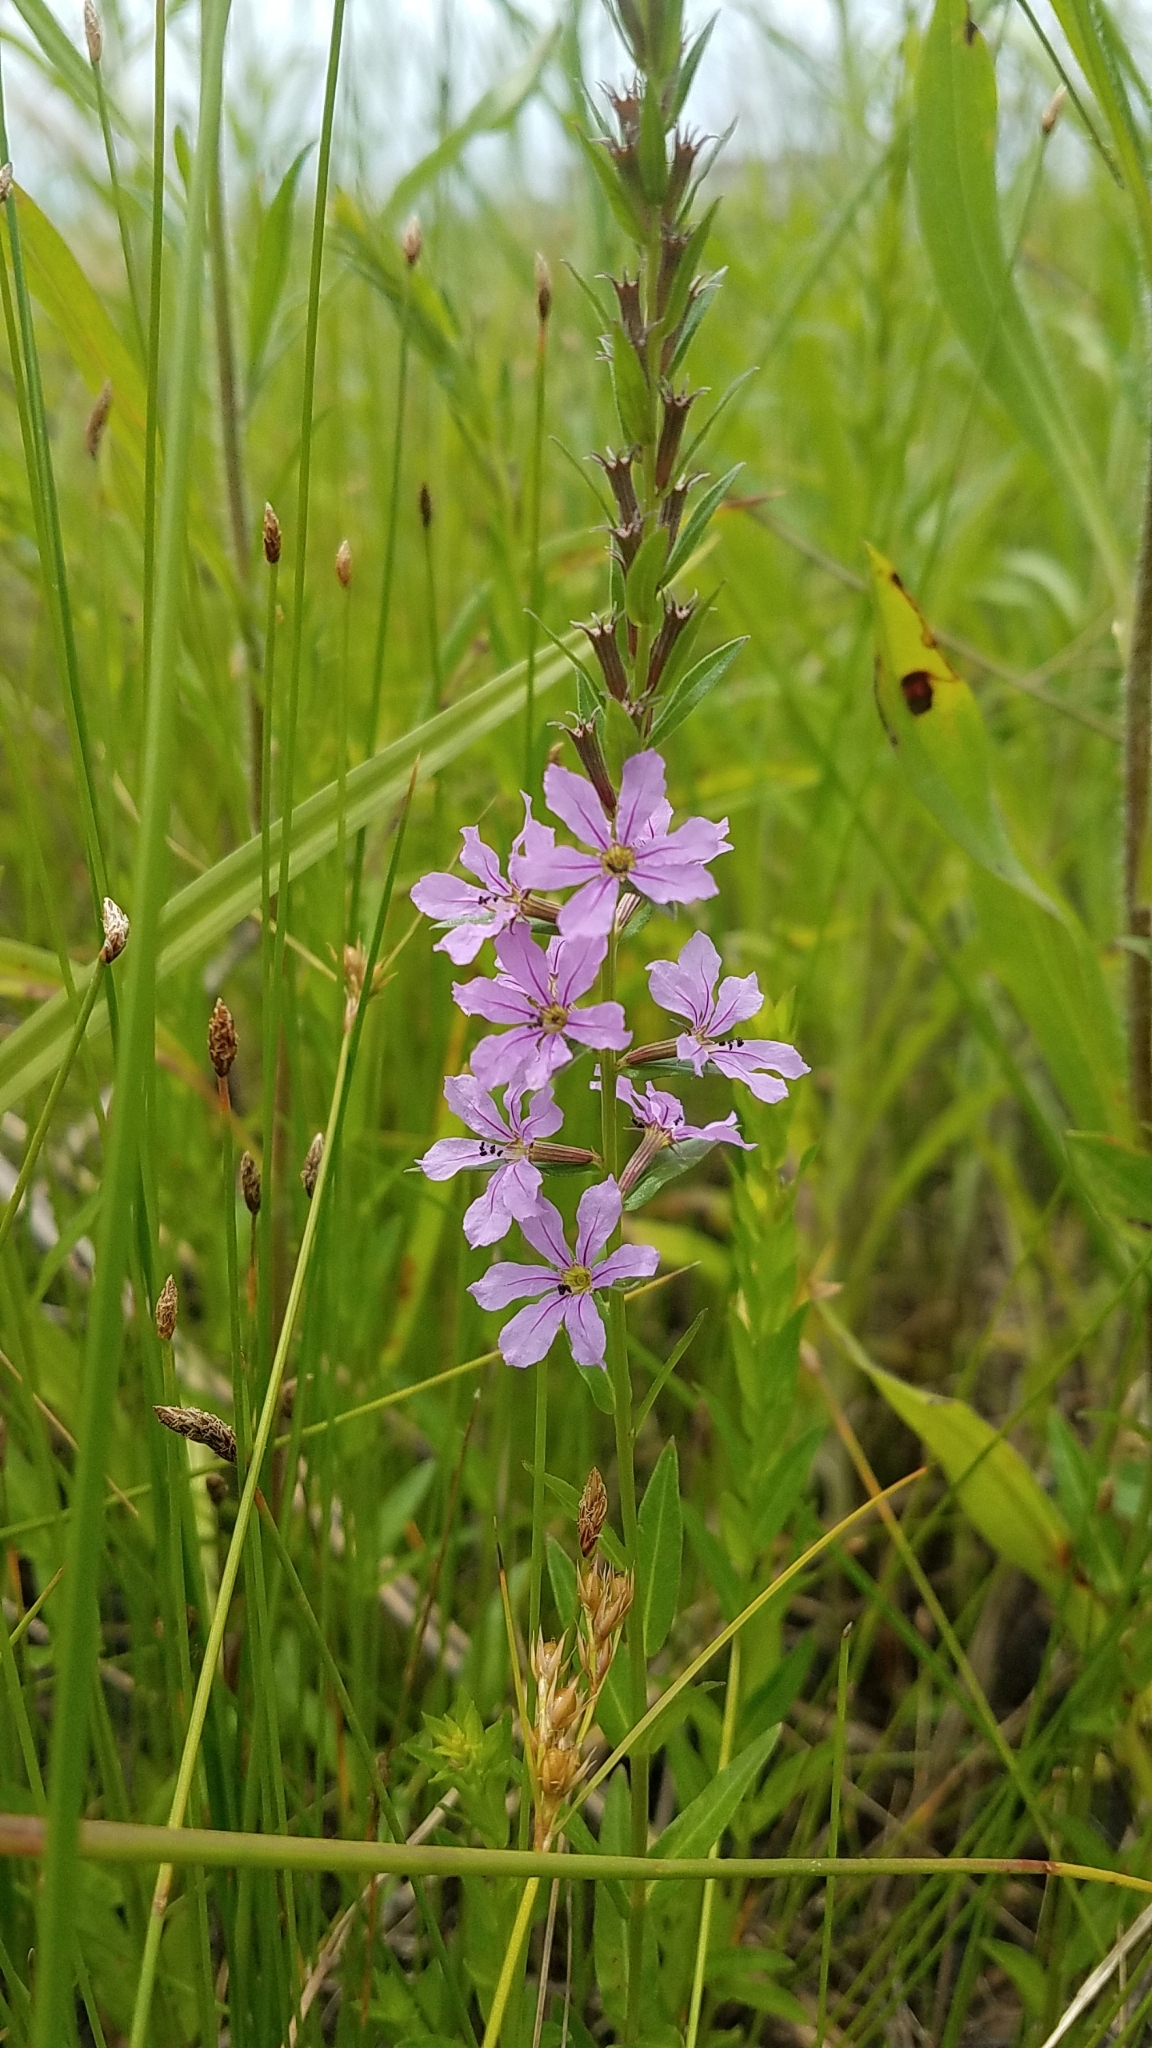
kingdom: Plantae
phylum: Tracheophyta
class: Magnoliopsida
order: Myrtales
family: Lythraceae
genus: Lythrum
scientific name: Lythrum alatum
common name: Winged loosestrife
